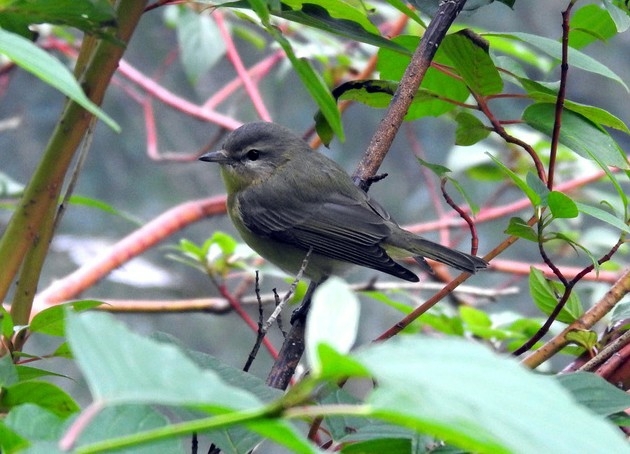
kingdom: Animalia
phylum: Chordata
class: Aves
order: Passeriformes
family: Vireonidae
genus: Vireo
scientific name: Vireo philadelphicus
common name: Philadelphia vireo
